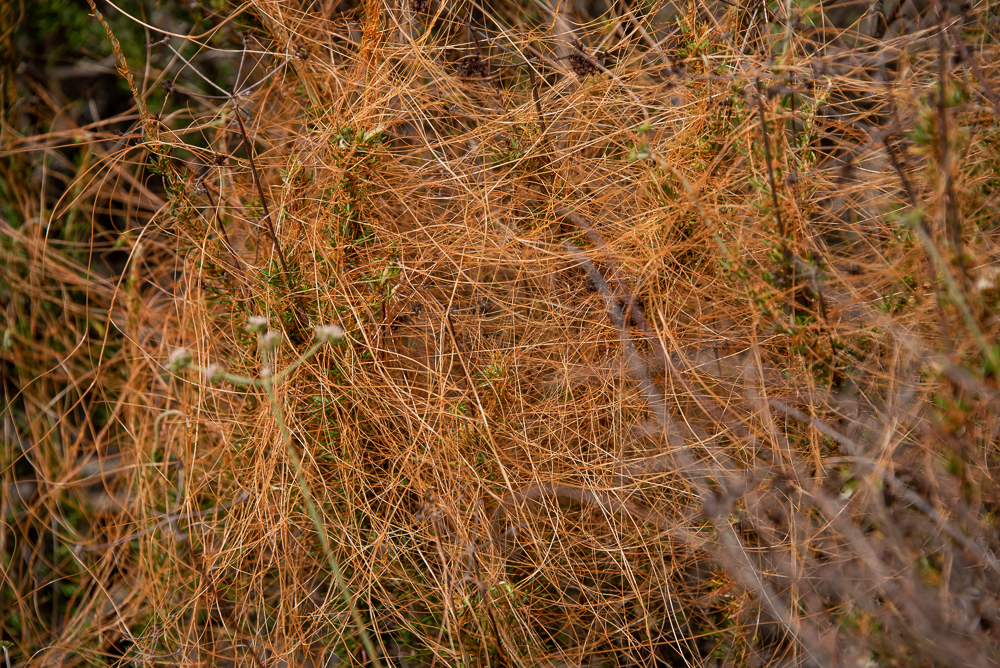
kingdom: Plantae
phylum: Tracheophyta
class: Magnoliopsida
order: Solanales
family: Convolvulaceae
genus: Cuscuta
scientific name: Cuscuta californica
